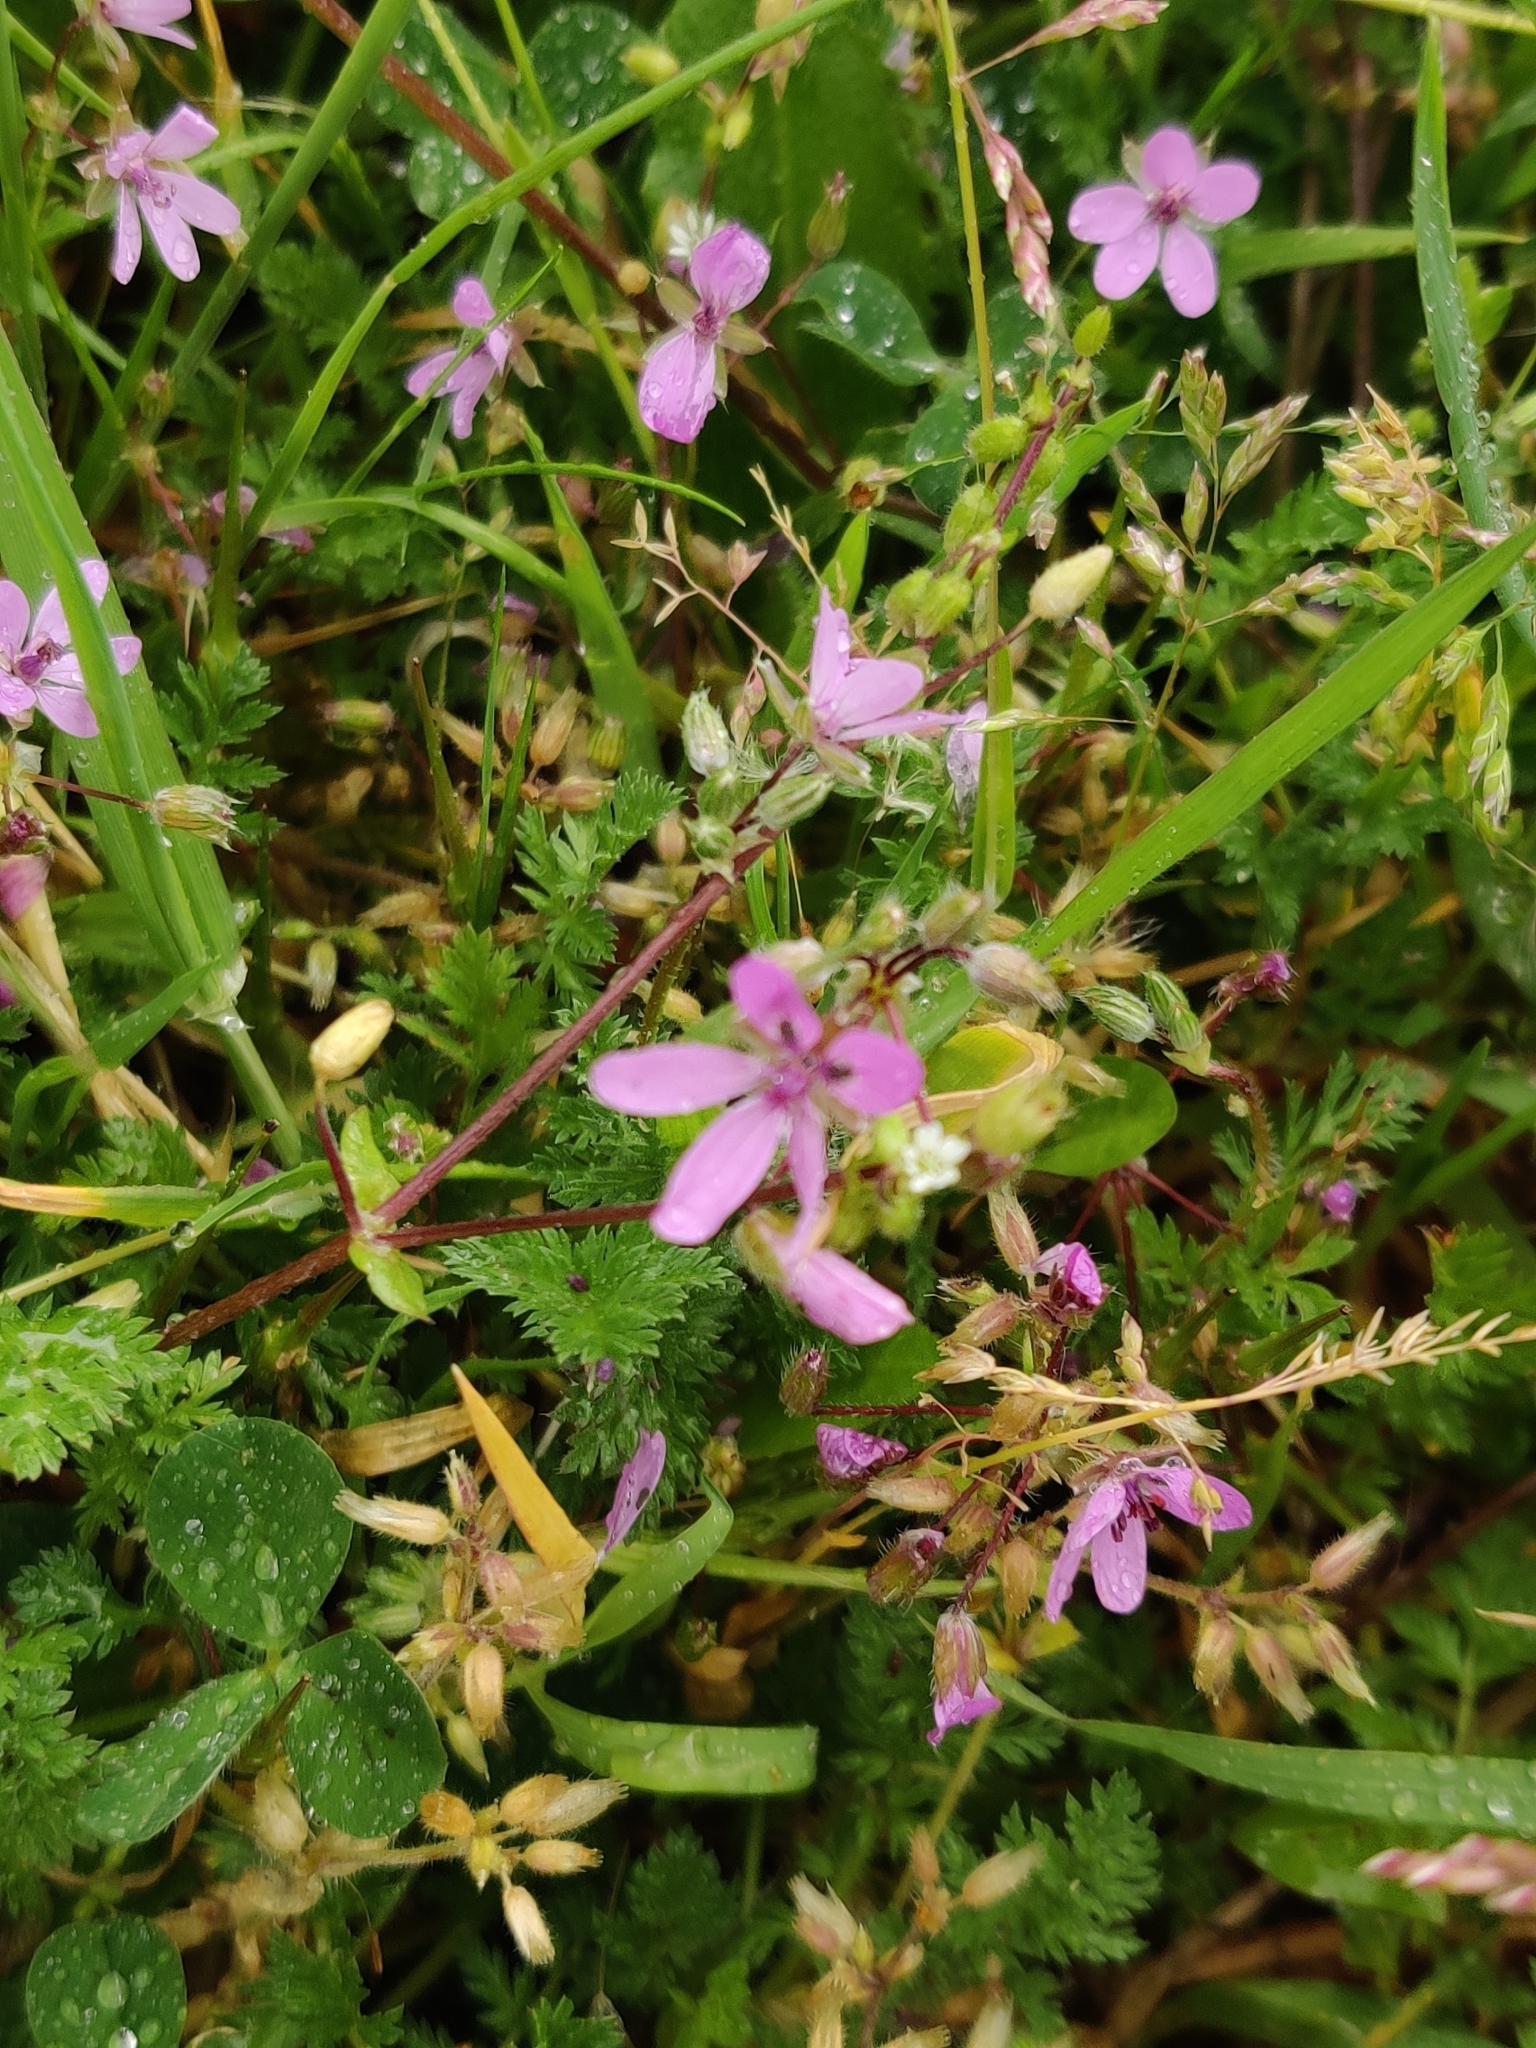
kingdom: Plantae
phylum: Tracheophyta
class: Magnoliopsida
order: Geraniales
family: Geraniaceae
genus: Erodium
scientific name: Erodium cicutarium
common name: Common stork's-bill
